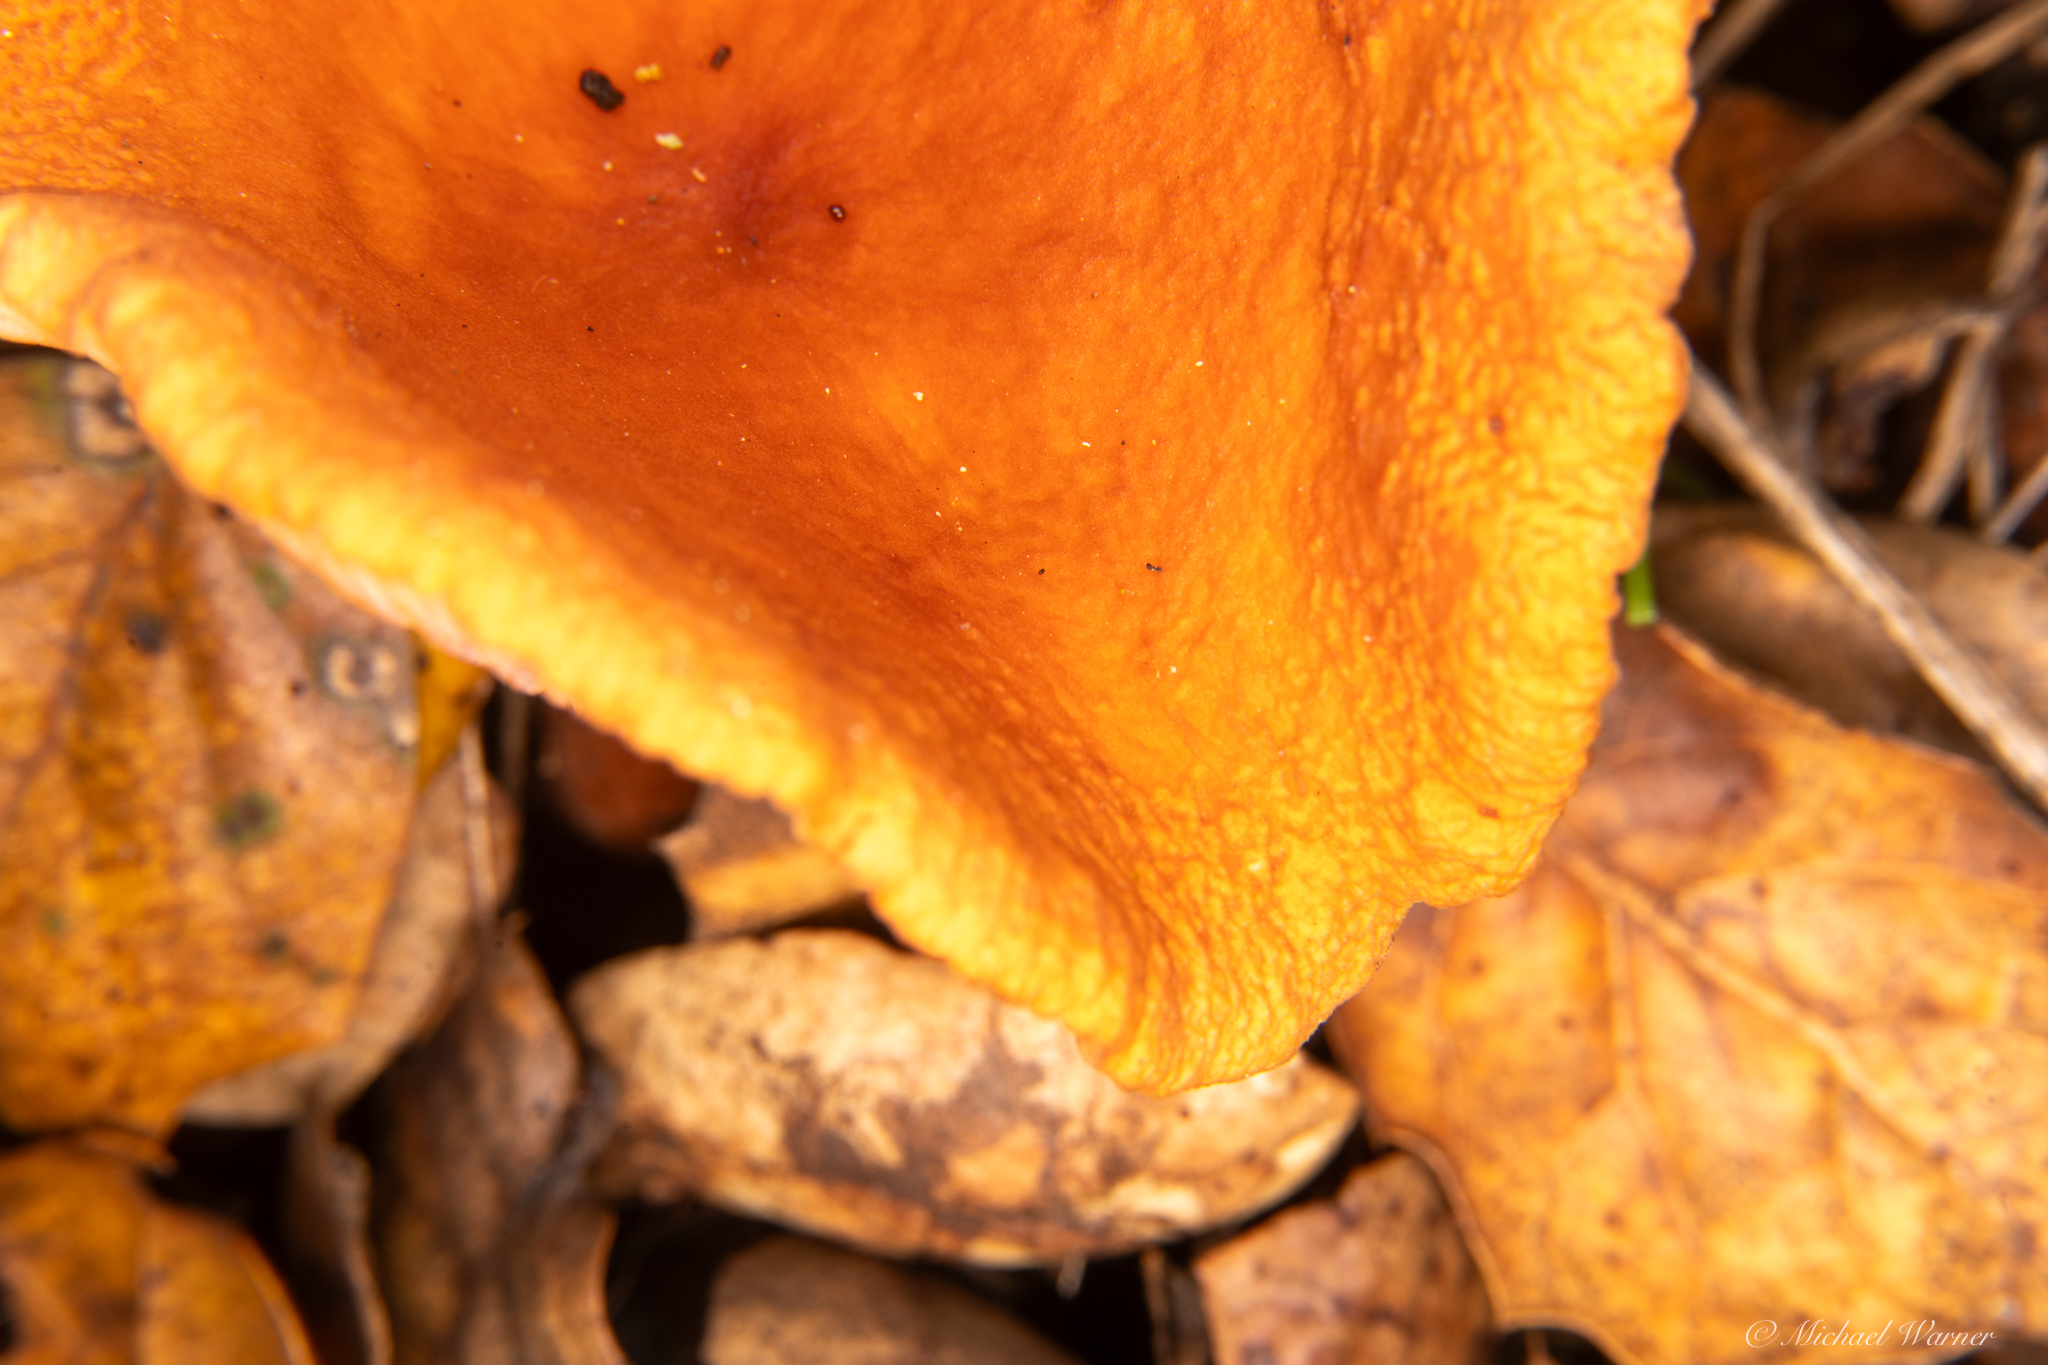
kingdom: Fungi
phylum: Basidiomycota
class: Agaricomycetes
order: Russulales
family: Russulaceae
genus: Lactarius
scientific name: Lactarius rubidus
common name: Candy cap
